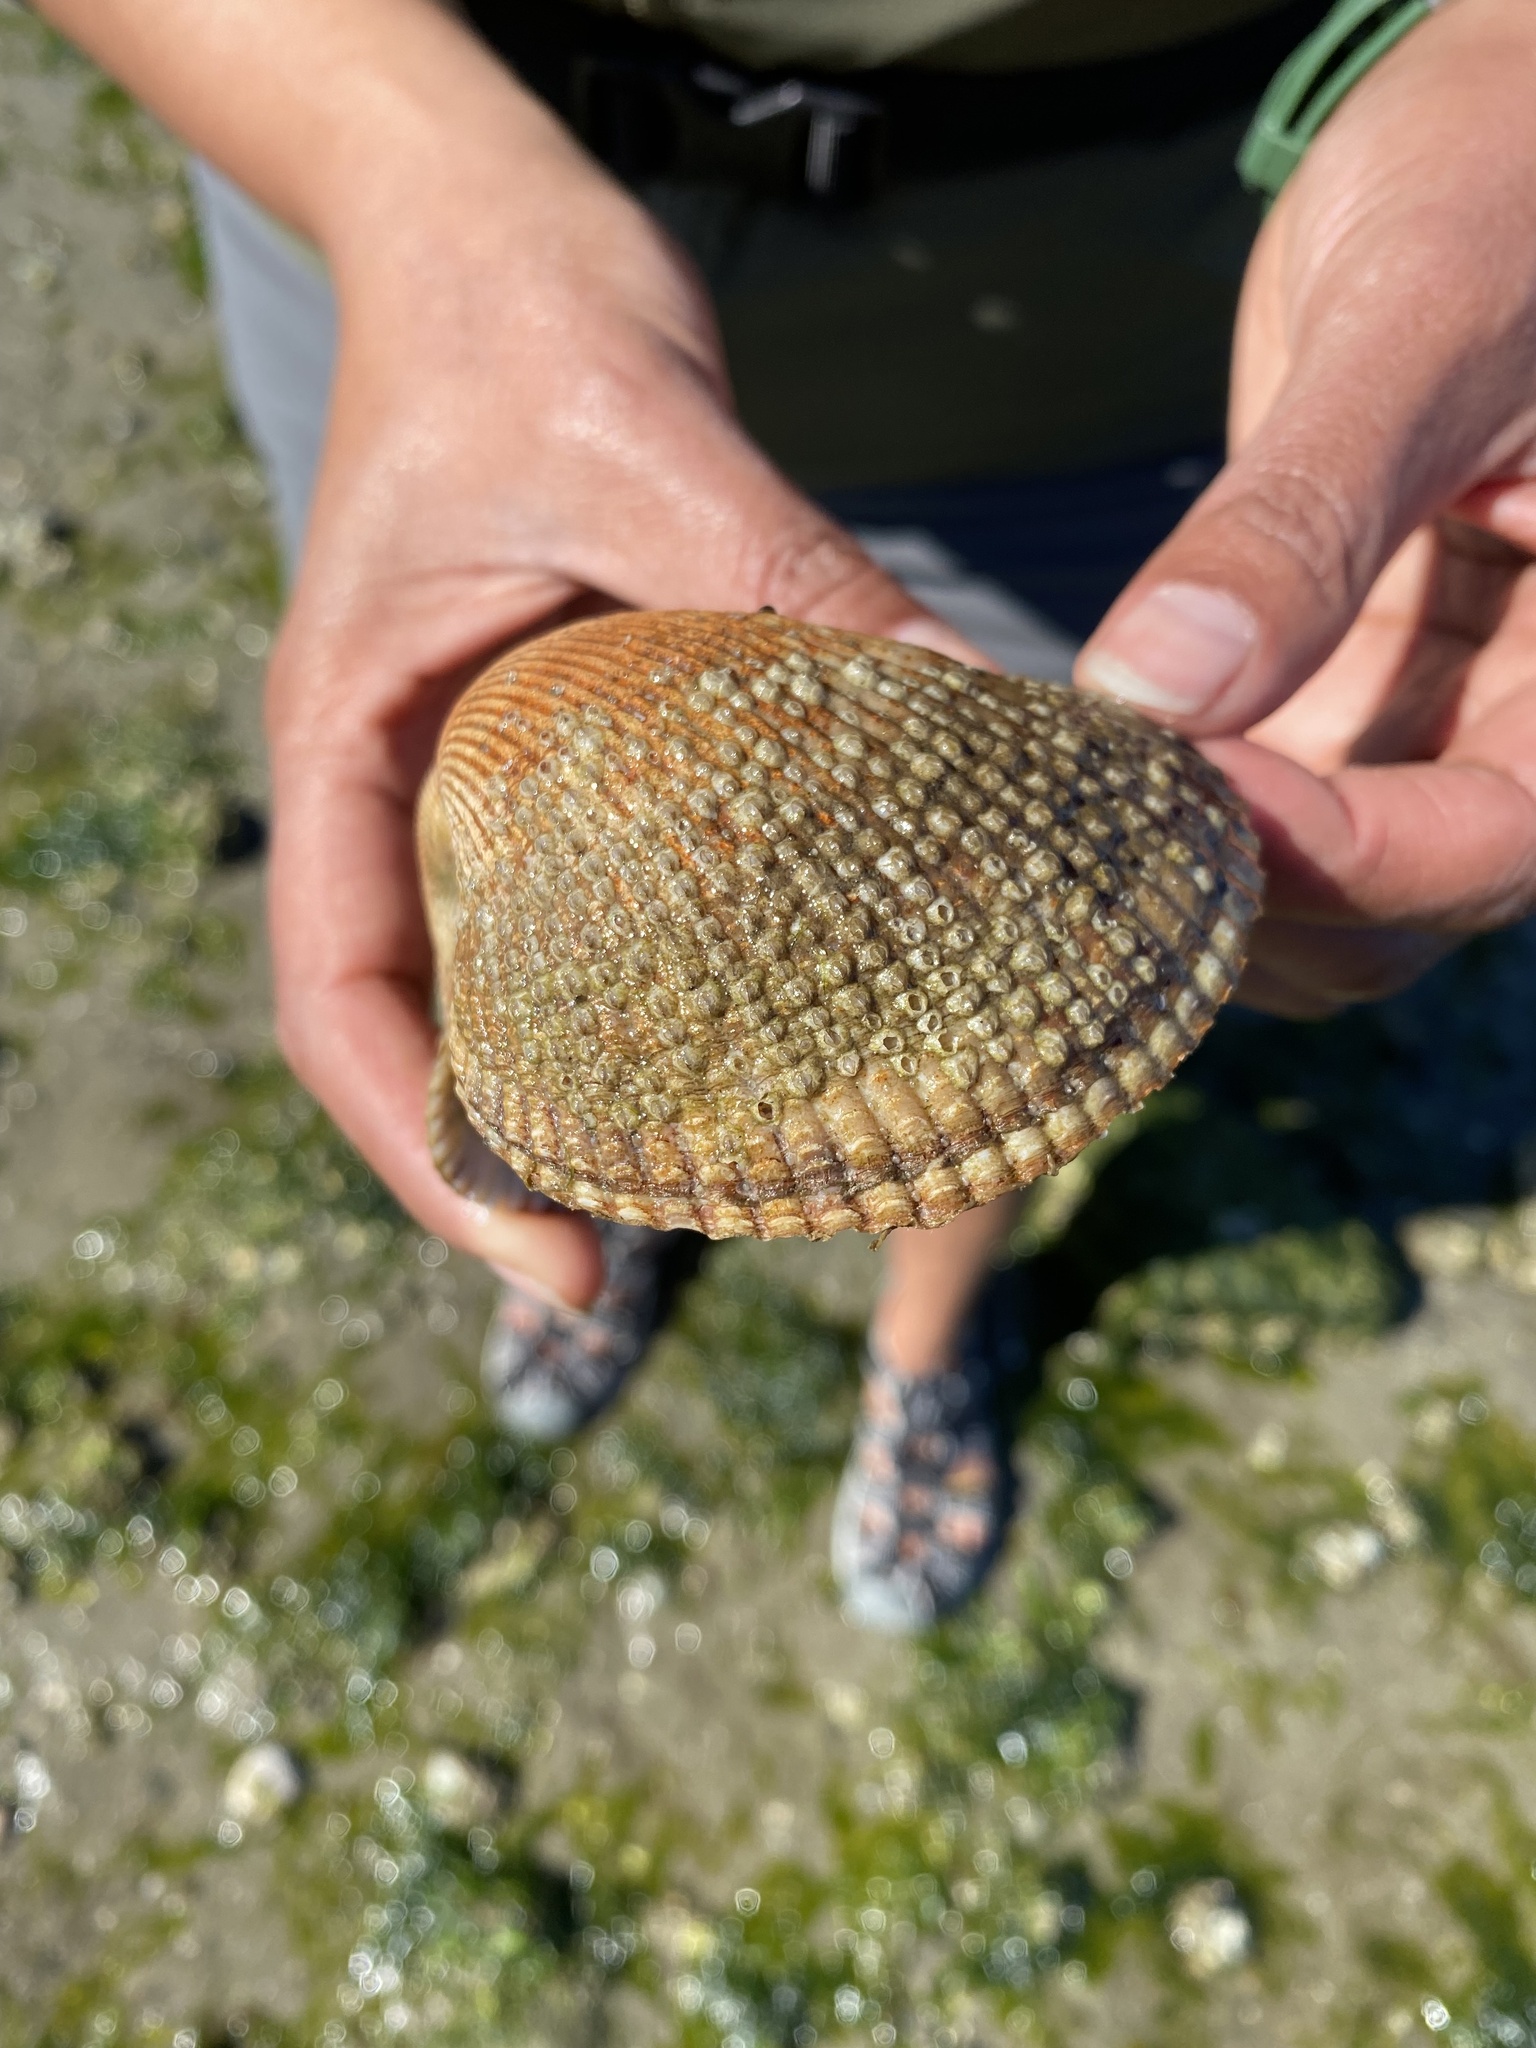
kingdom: Animalia
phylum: Mollusca
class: Bivalvia
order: Cardiida
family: Cardiidae
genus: Clinocardium
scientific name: Clinocardium nuttallii
